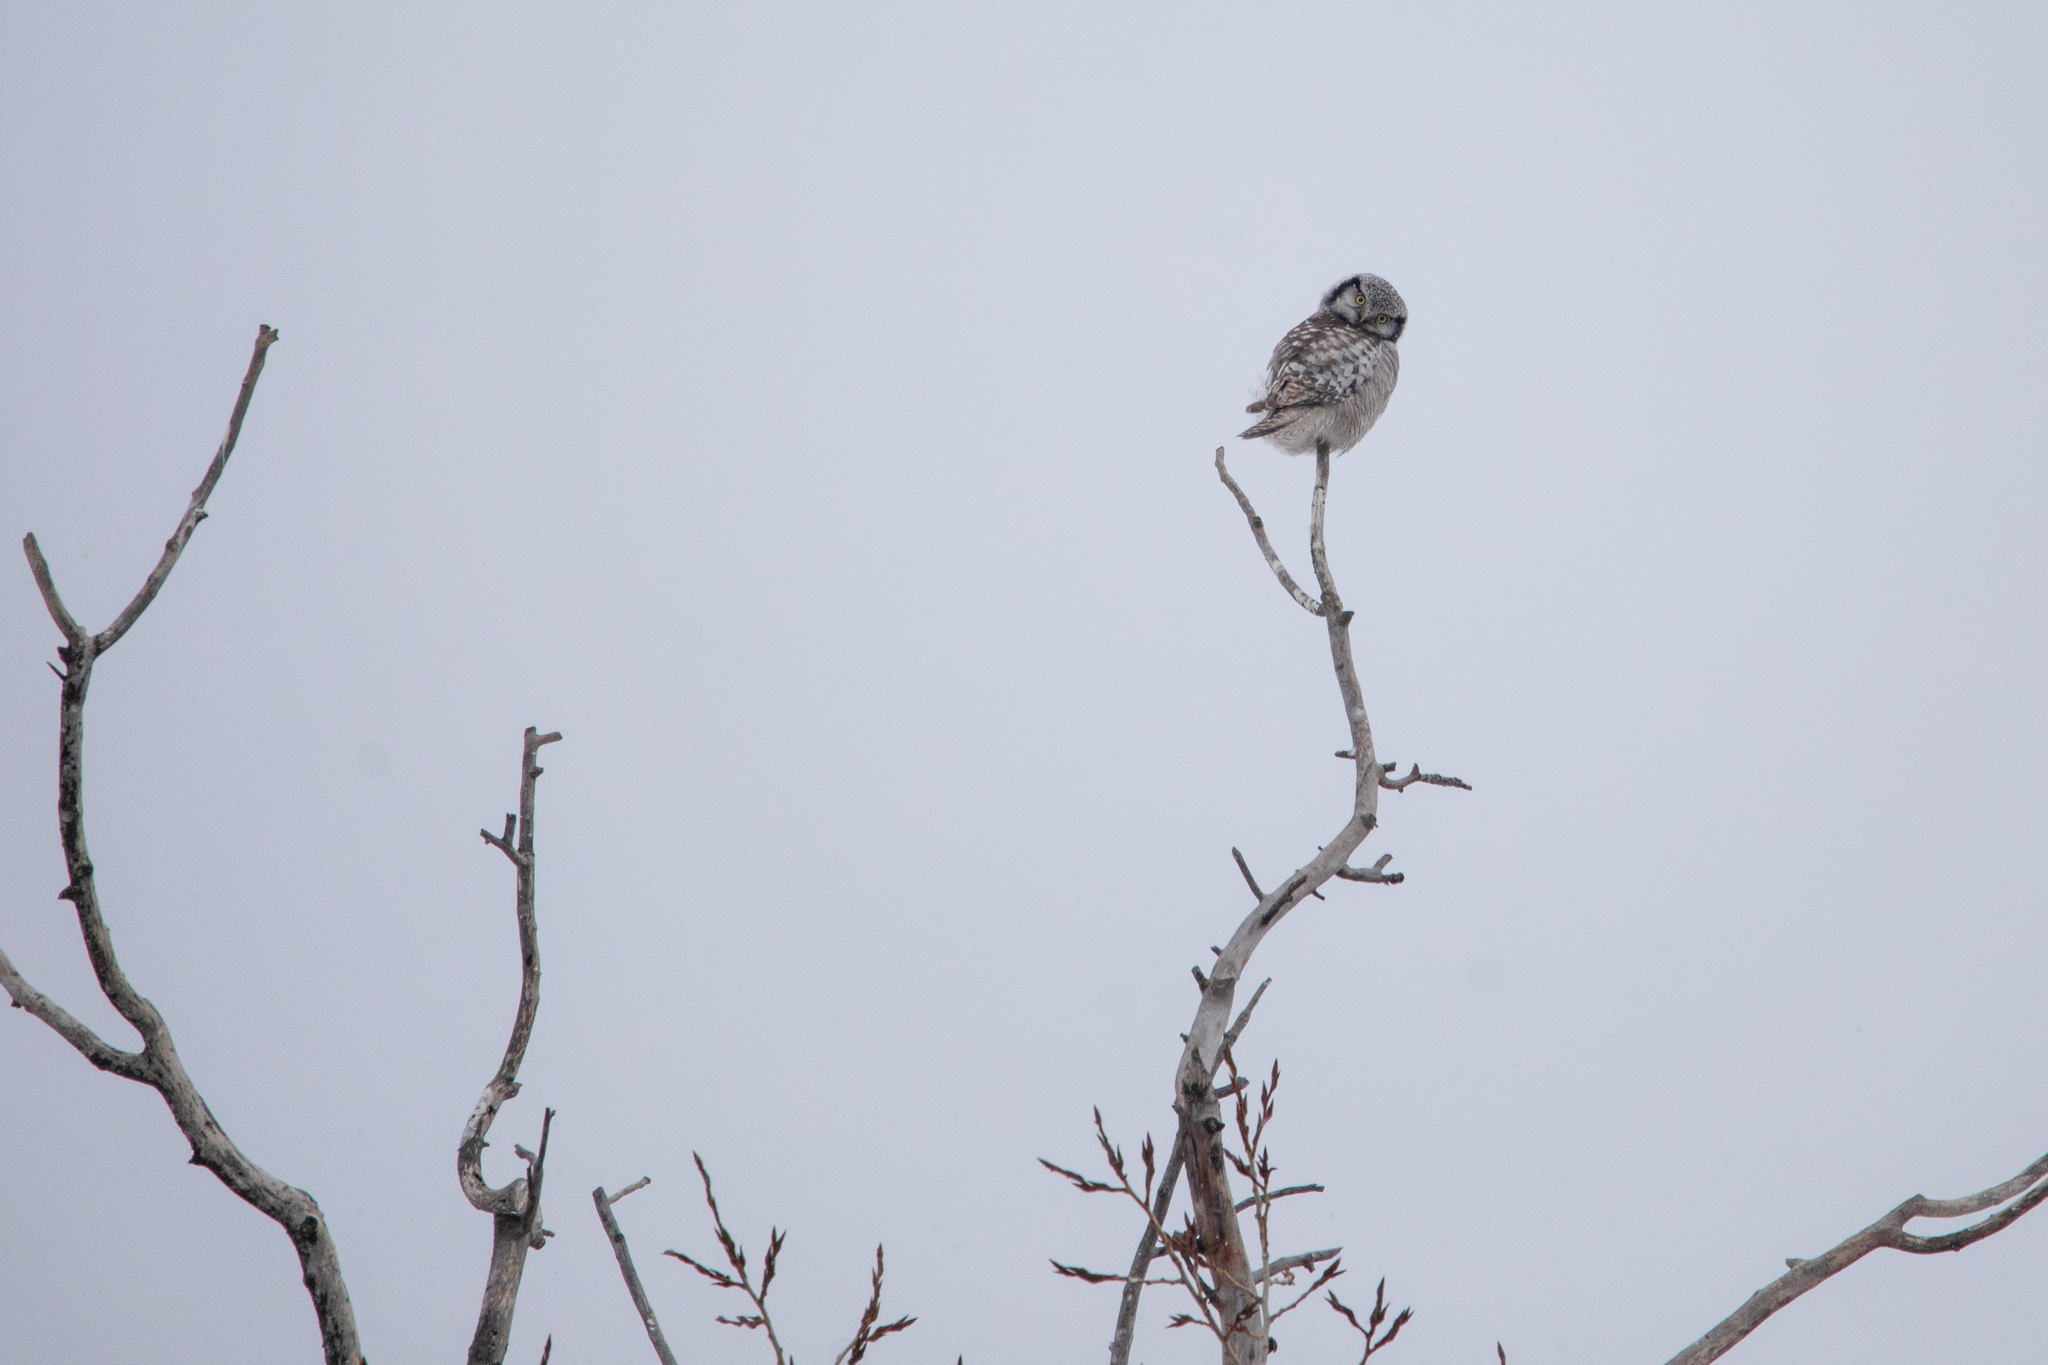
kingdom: Animalia
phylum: Chordata
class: Aves
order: Strigiformes
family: Strigidae
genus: Surnia
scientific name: Surnia ulula
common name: Northern hawk-owl
